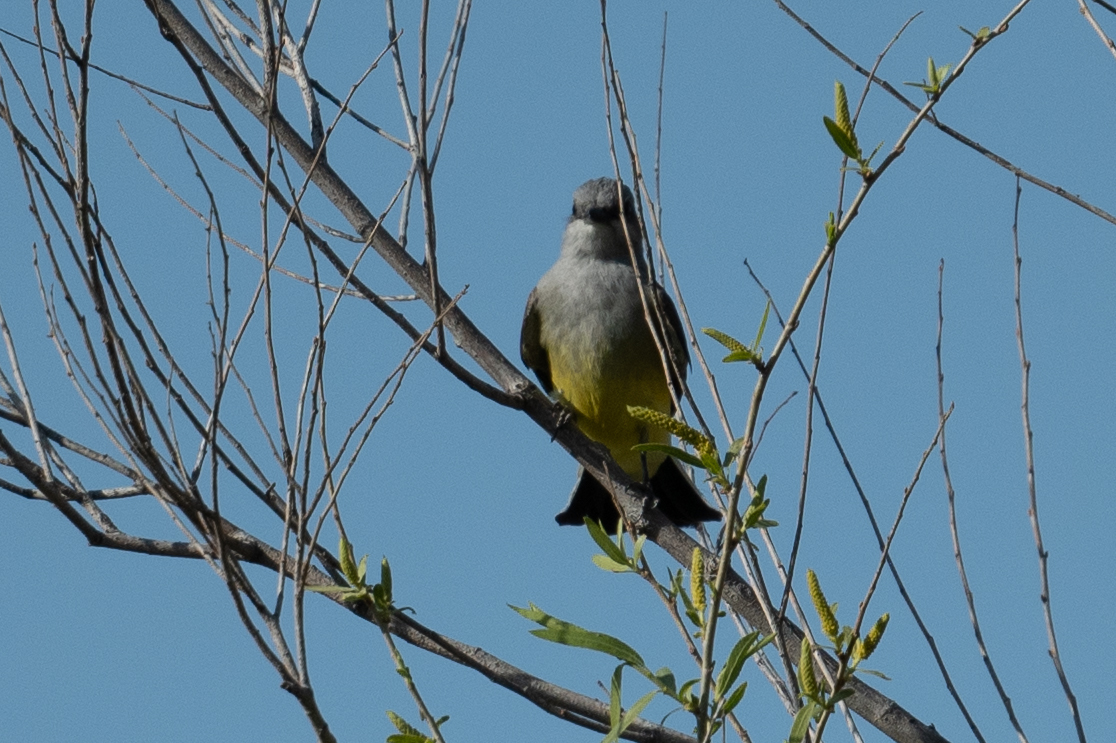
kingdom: Animalia
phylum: Chordata
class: Aves
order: Passeriformes
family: Tyrannidae
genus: Tyrannus
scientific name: Tyrannus verticalis
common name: Western kingbird
